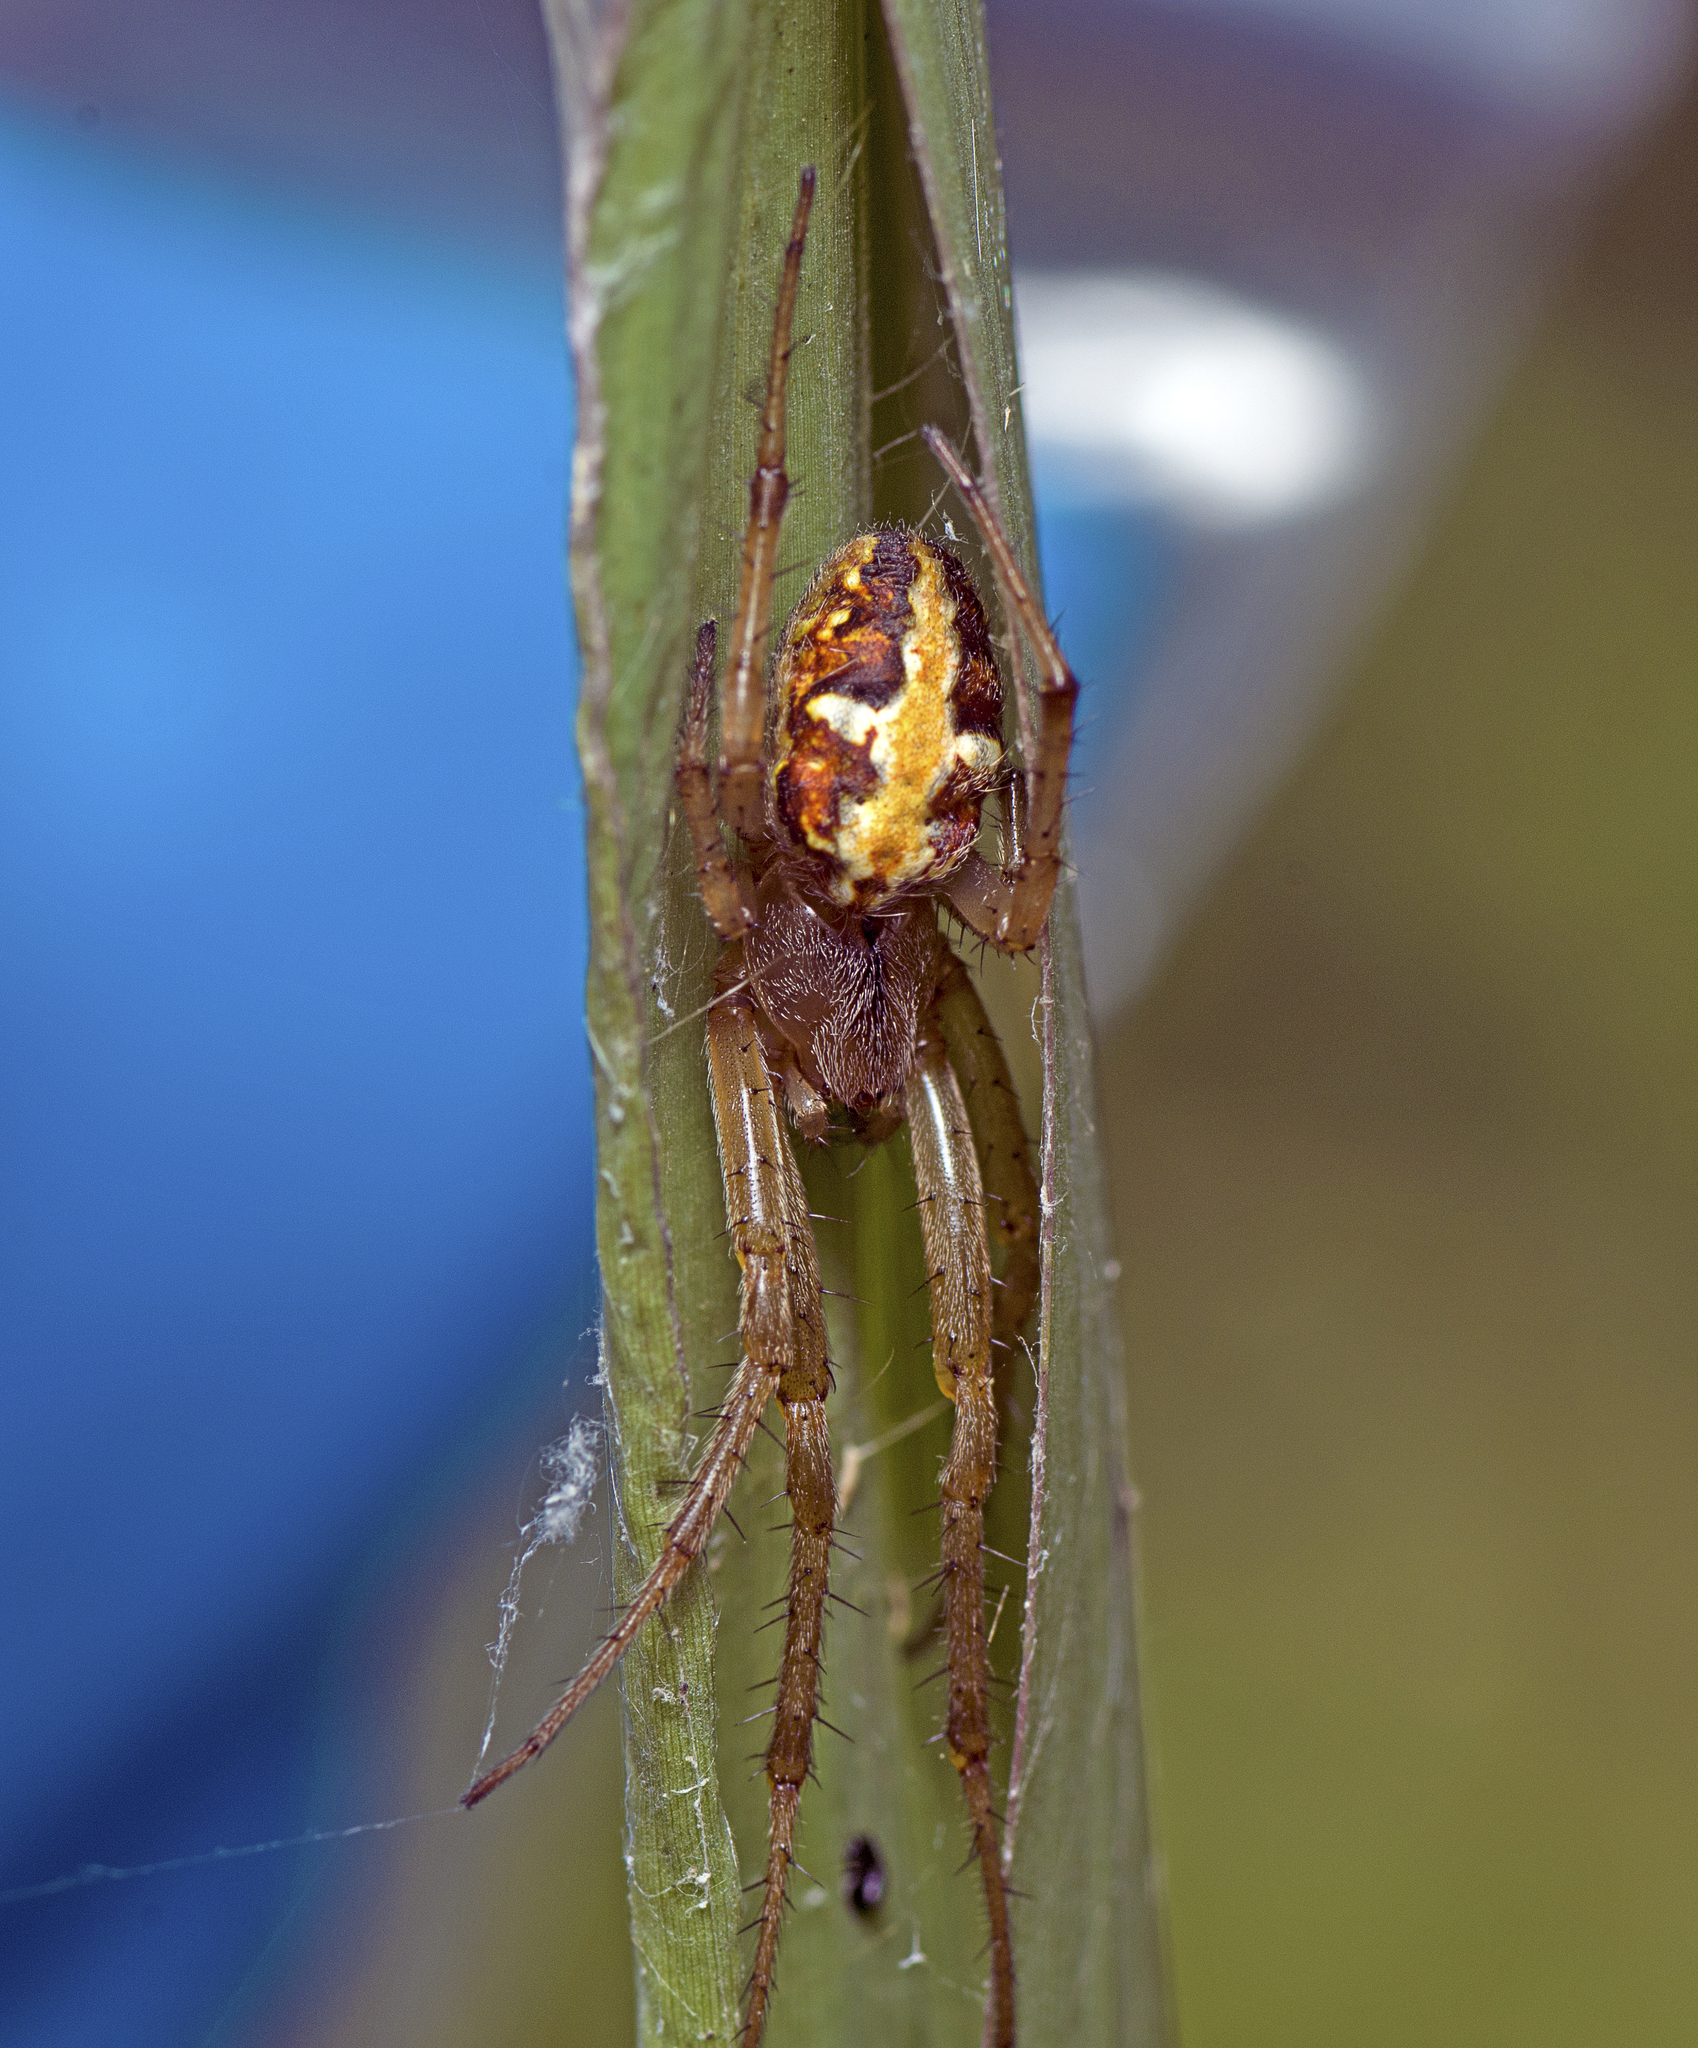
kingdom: Animalia
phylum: Arthropoda
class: Arachnida
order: Araneae
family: Araneidae
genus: Neoscona
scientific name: Neoscona theisi
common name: Spider
